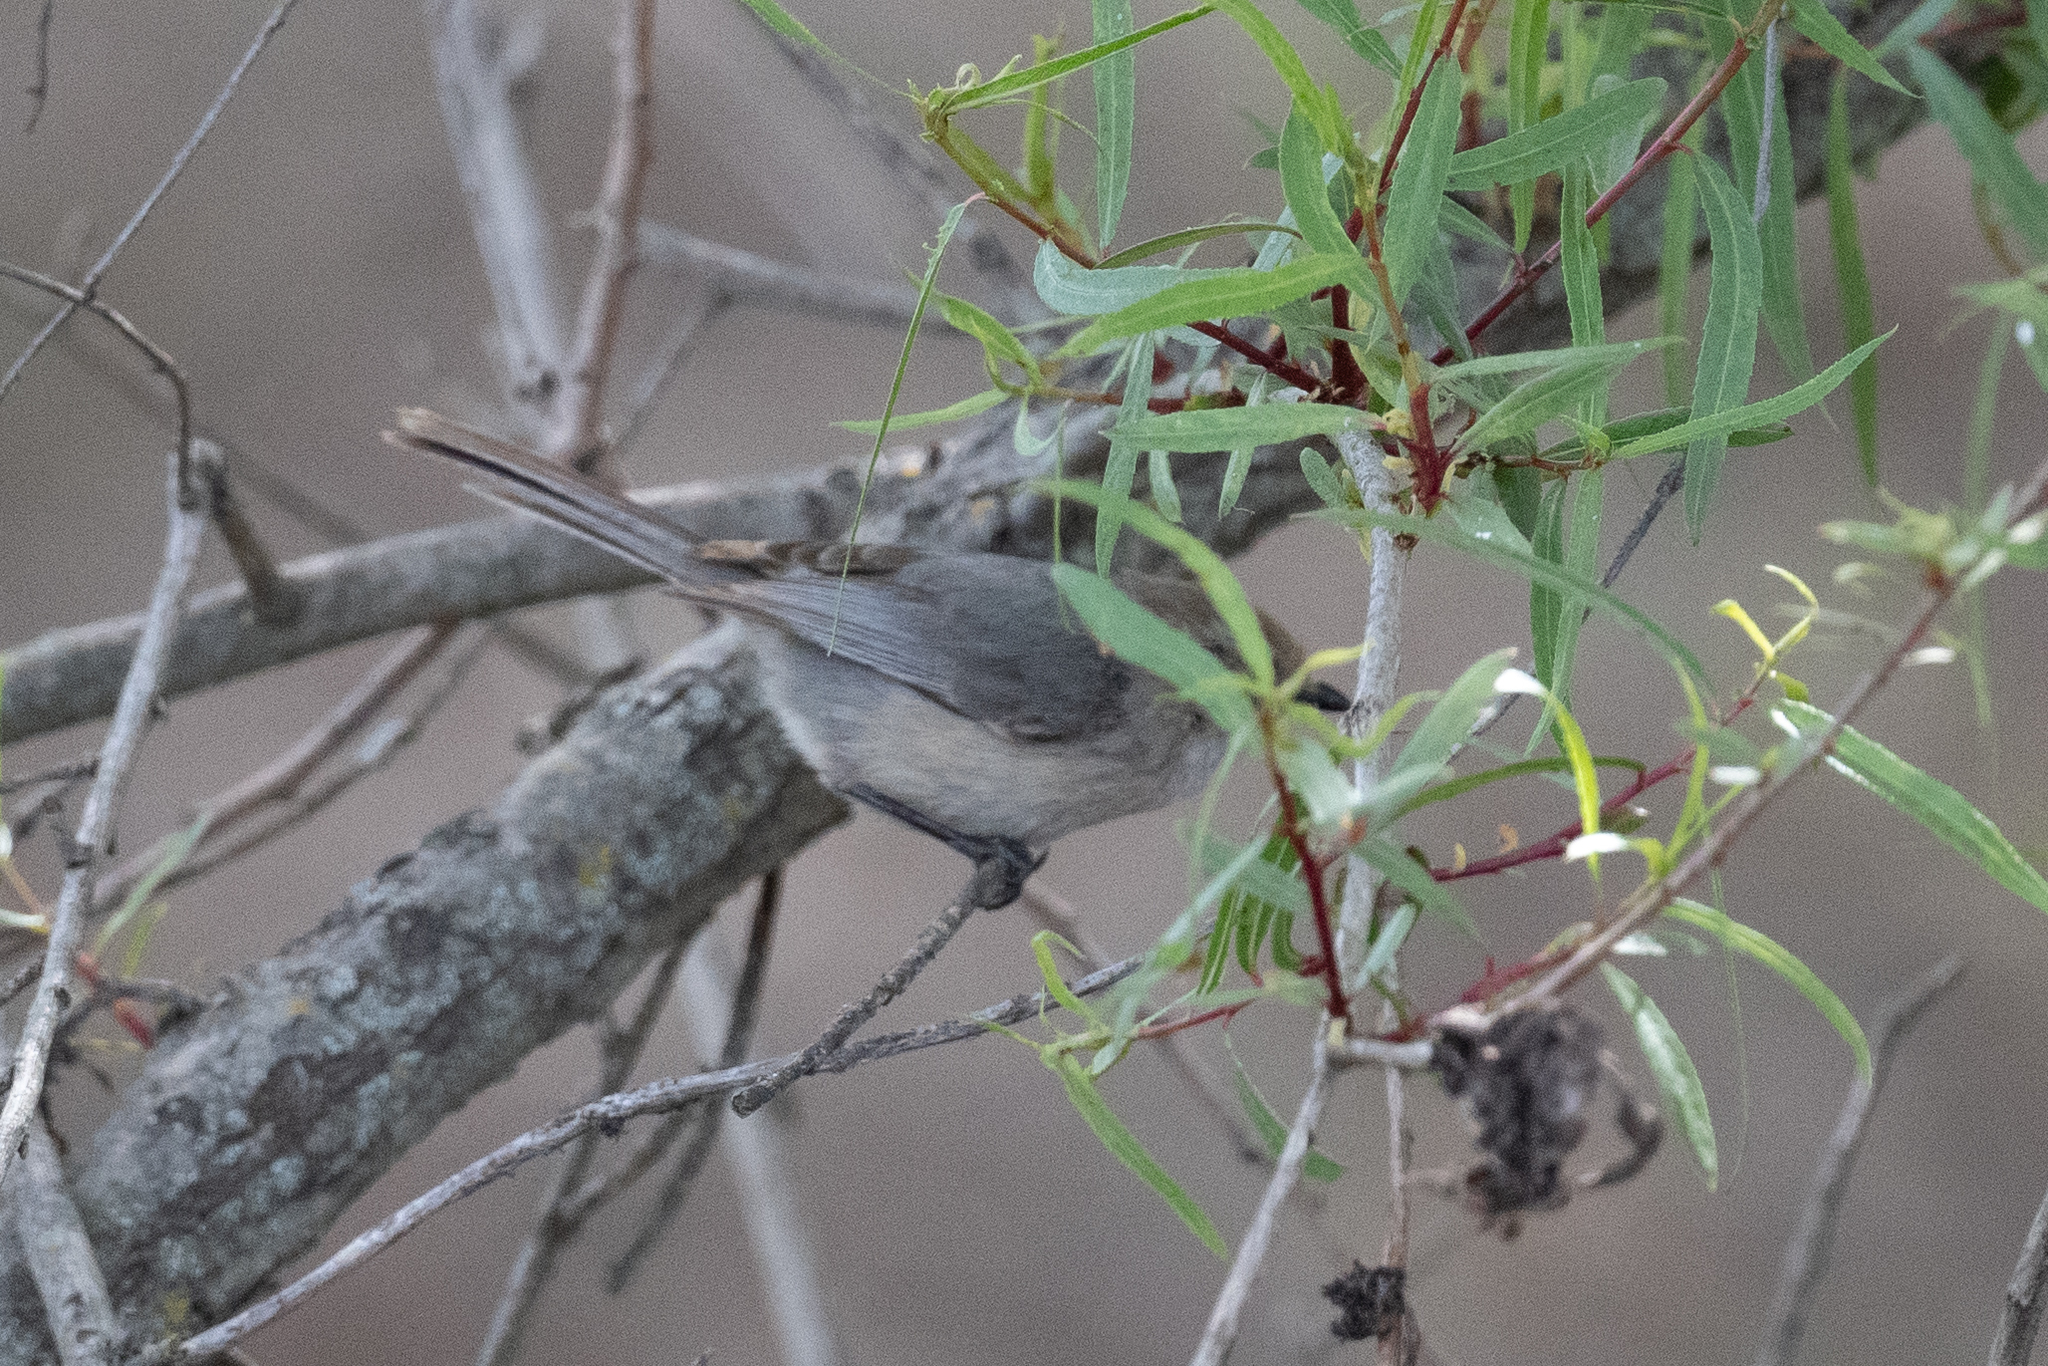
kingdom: Animalia
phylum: Chordata
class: Aves
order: Passeriformes
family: Aegithalidae
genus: Psaltriparus
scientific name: Psaltriparus minimus
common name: American bushtit
